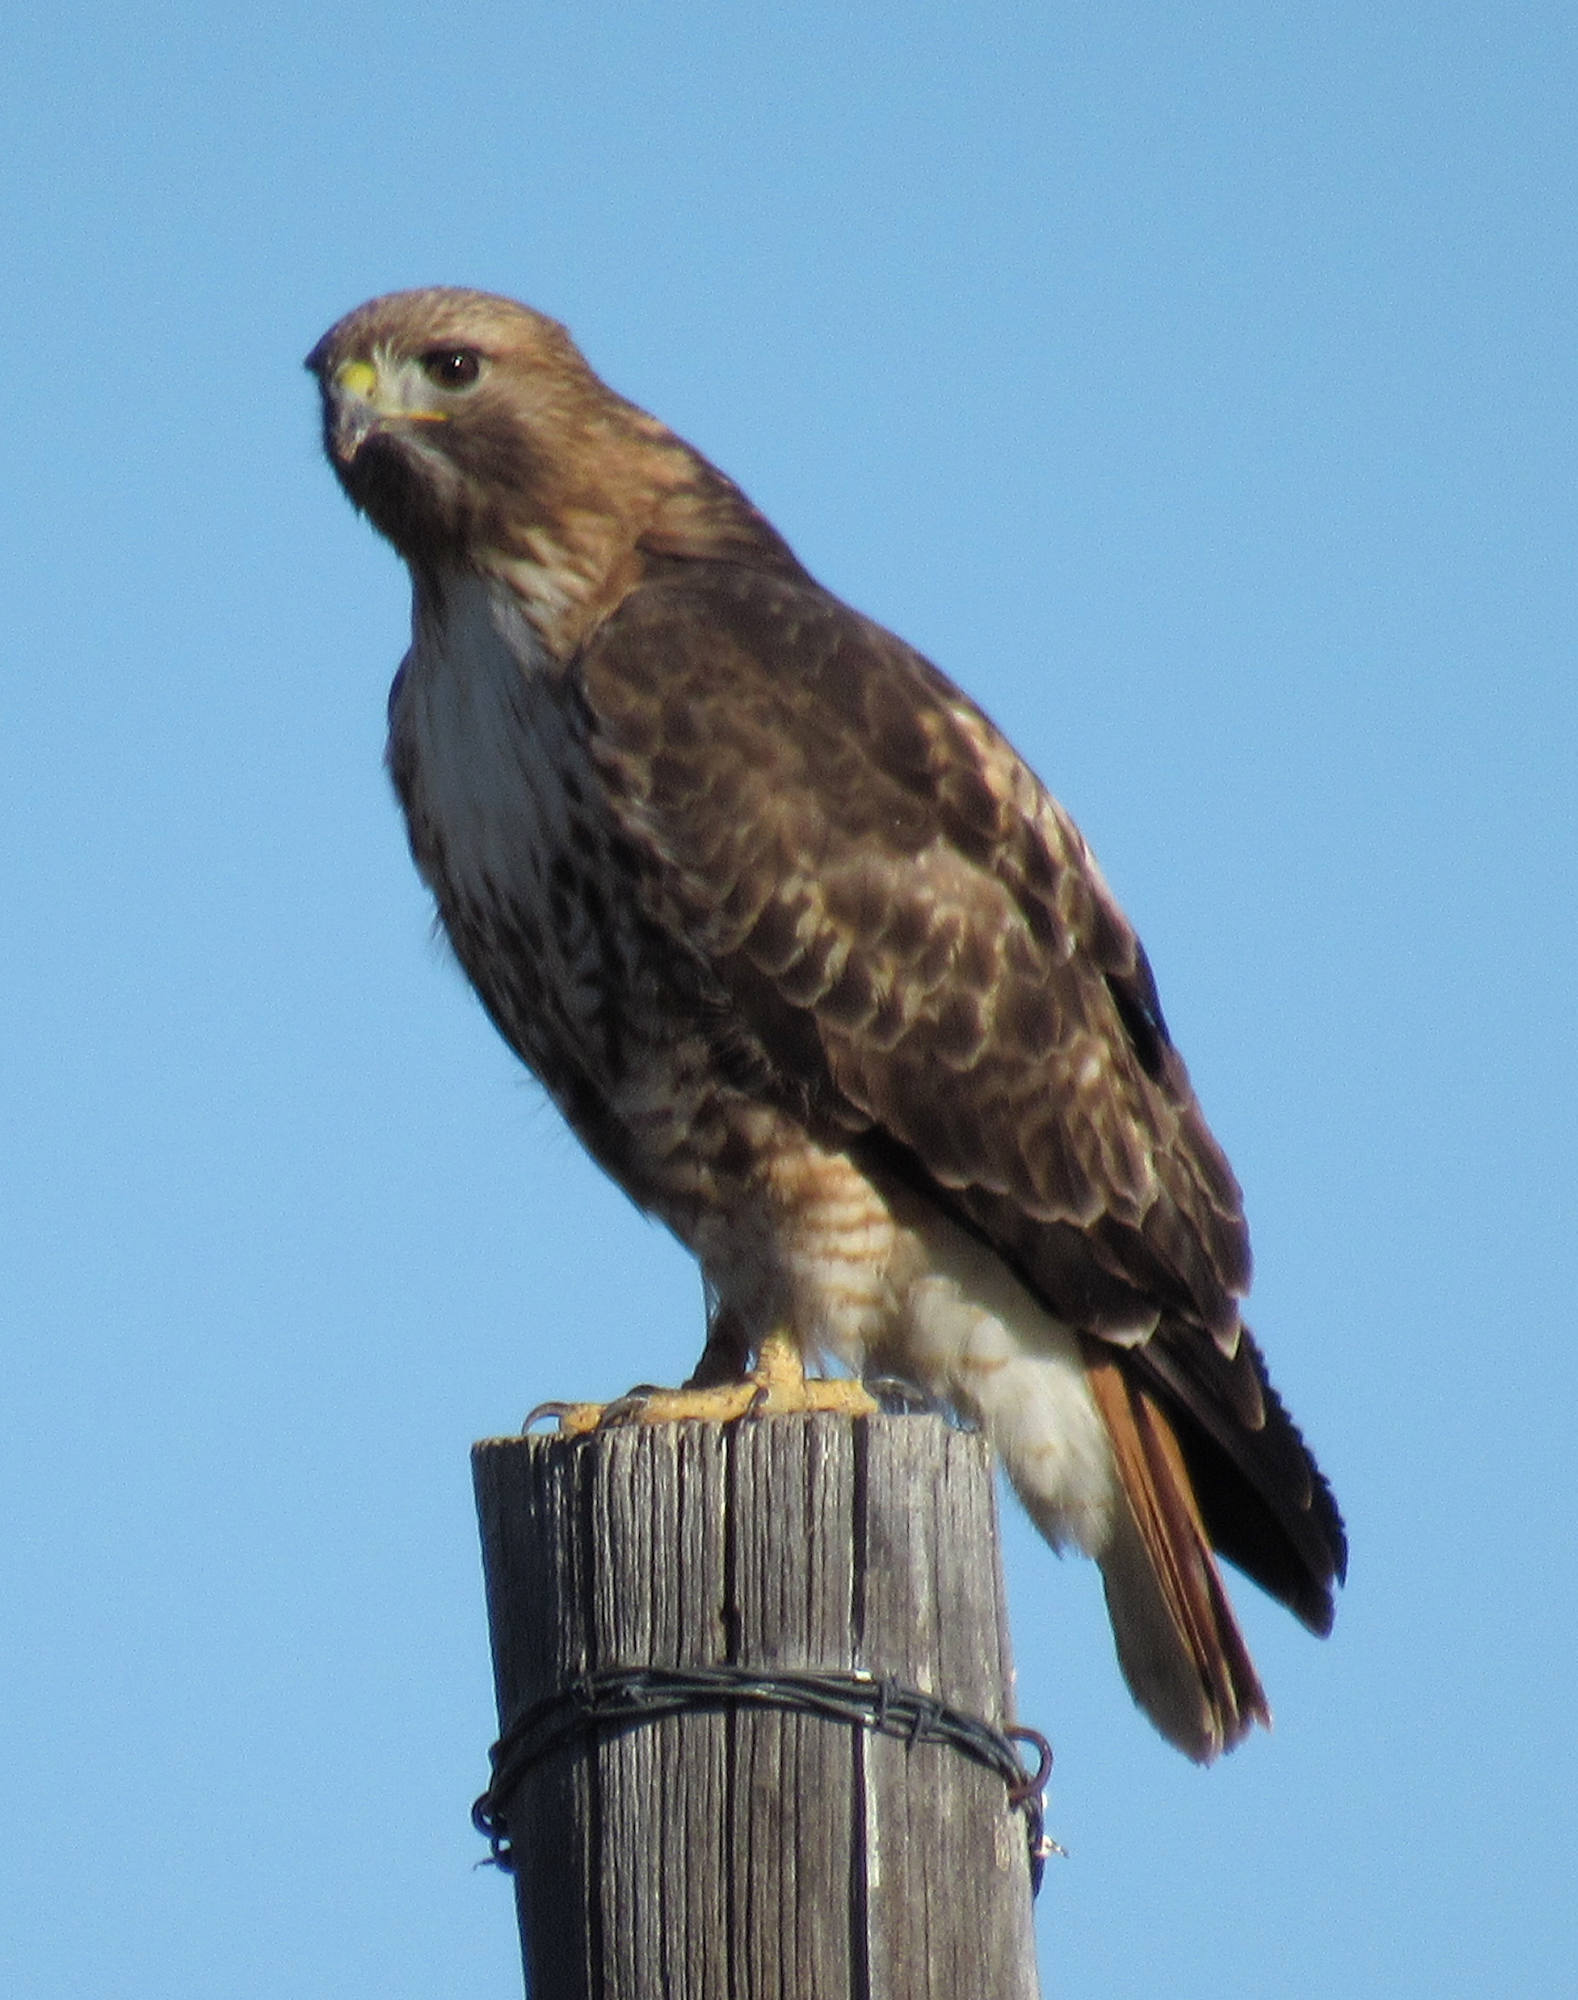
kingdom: Animalia
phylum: Chordata
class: Aves
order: Accipitriformes
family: Accipitridae
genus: Buteo
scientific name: Buteo jamaicensis
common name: Red-tailed hawk
